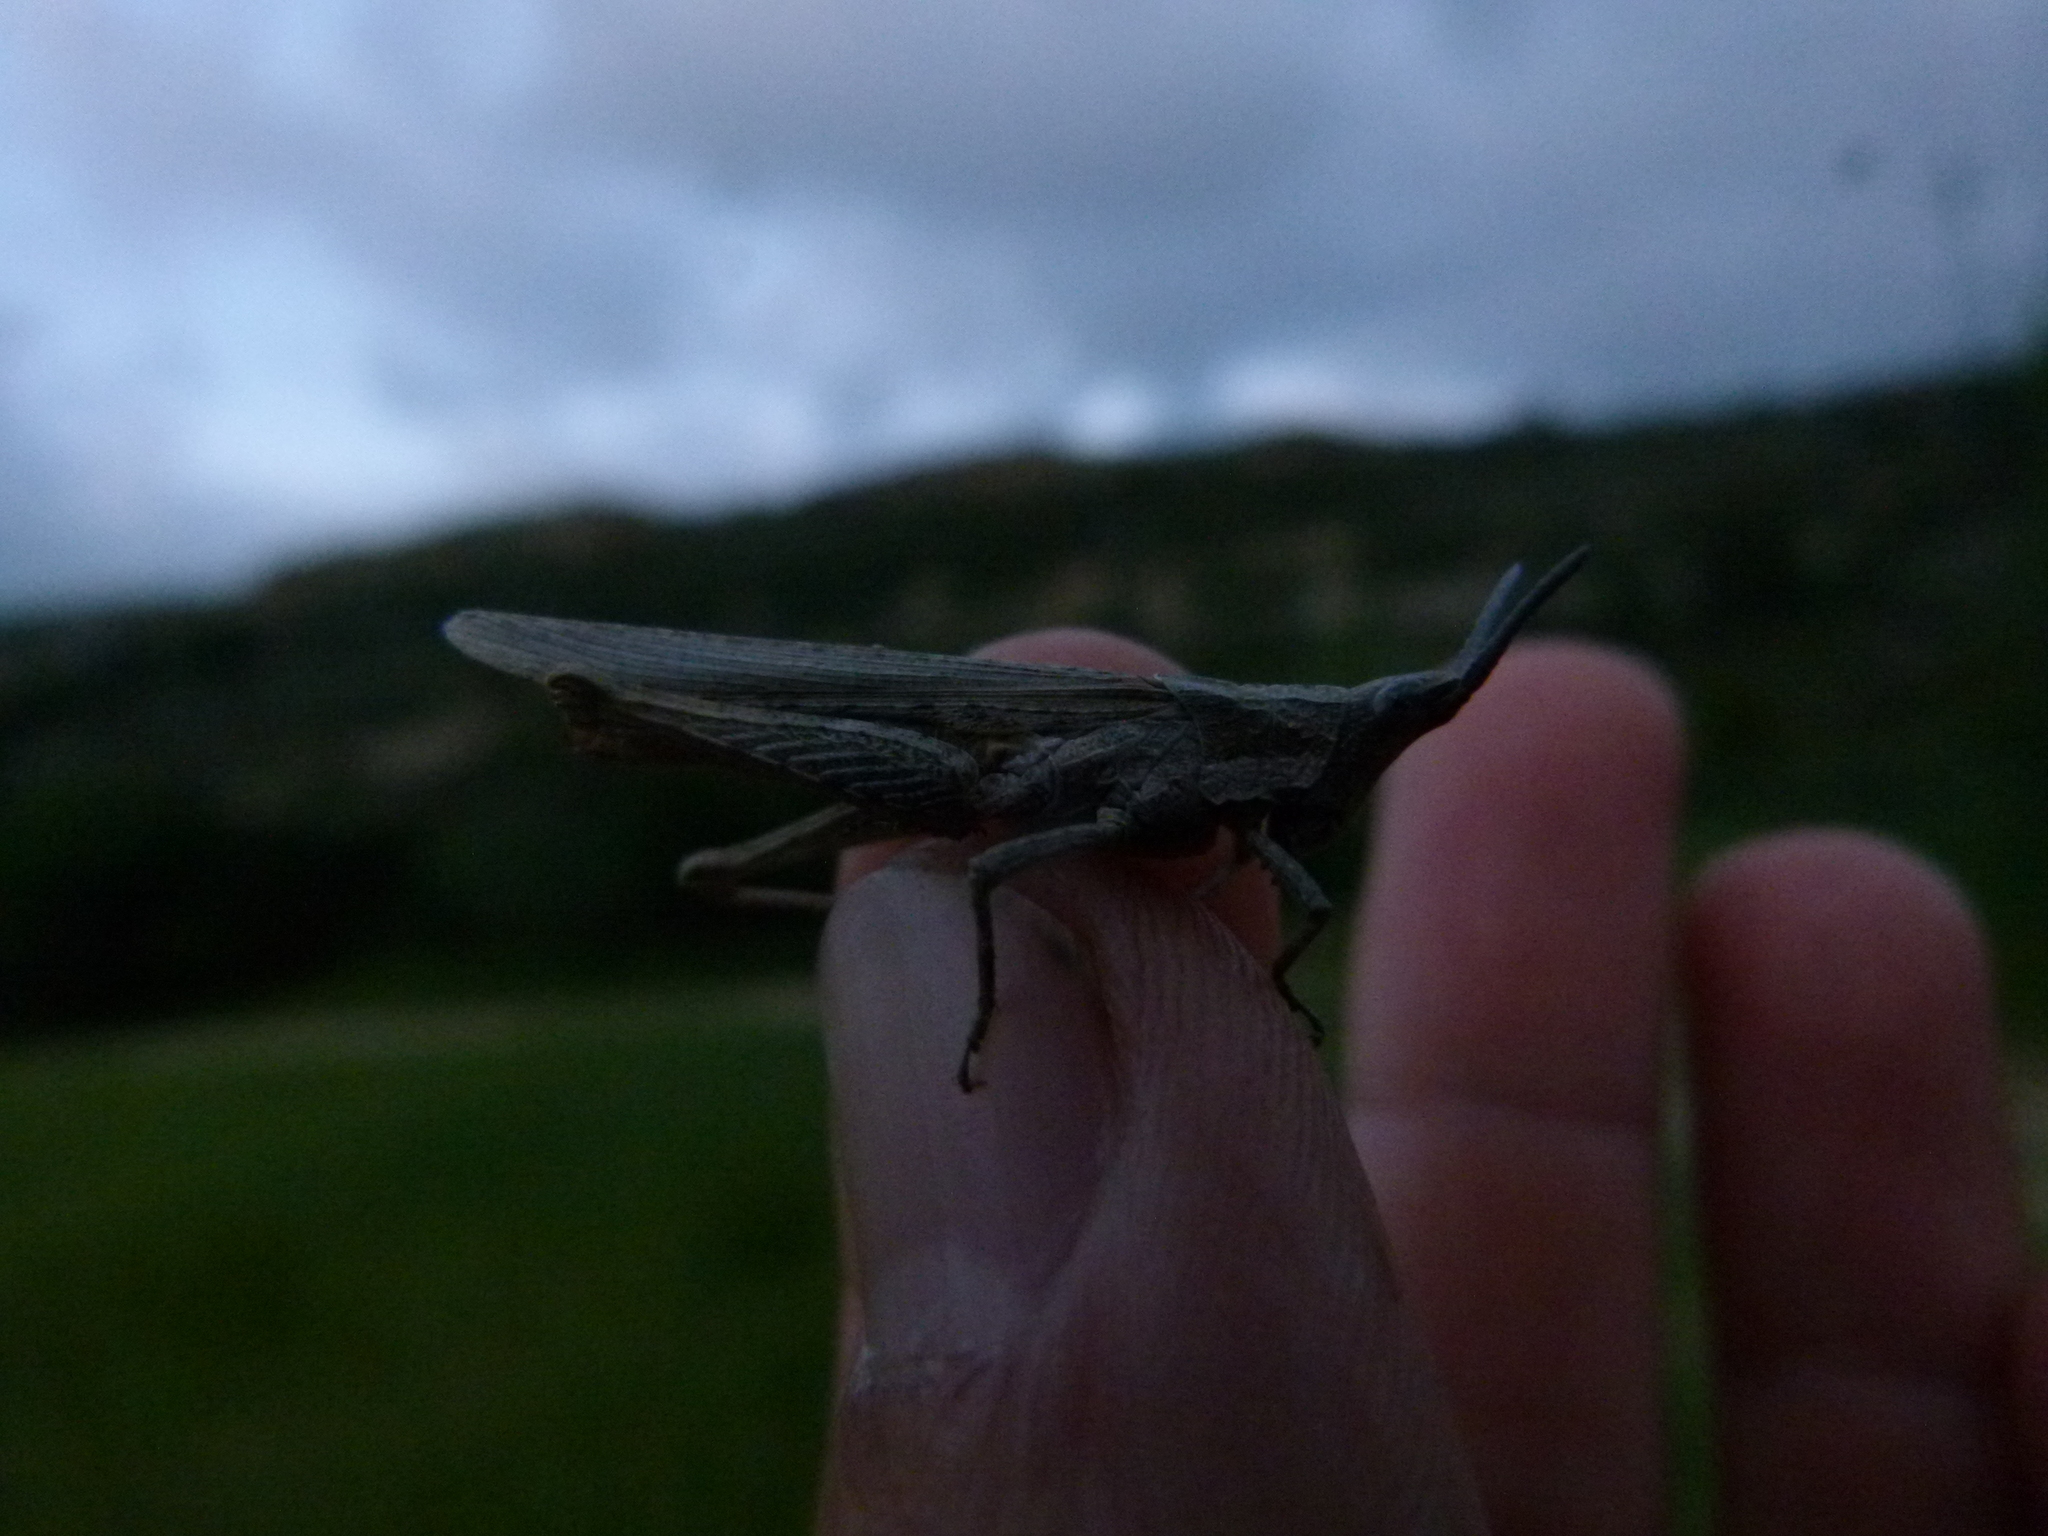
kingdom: Animalia
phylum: Arthropoda
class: Insecta
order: Orthoptera
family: Pyrgomorphidae
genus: Pyrgomorpha
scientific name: Pyrgomorpha conica
